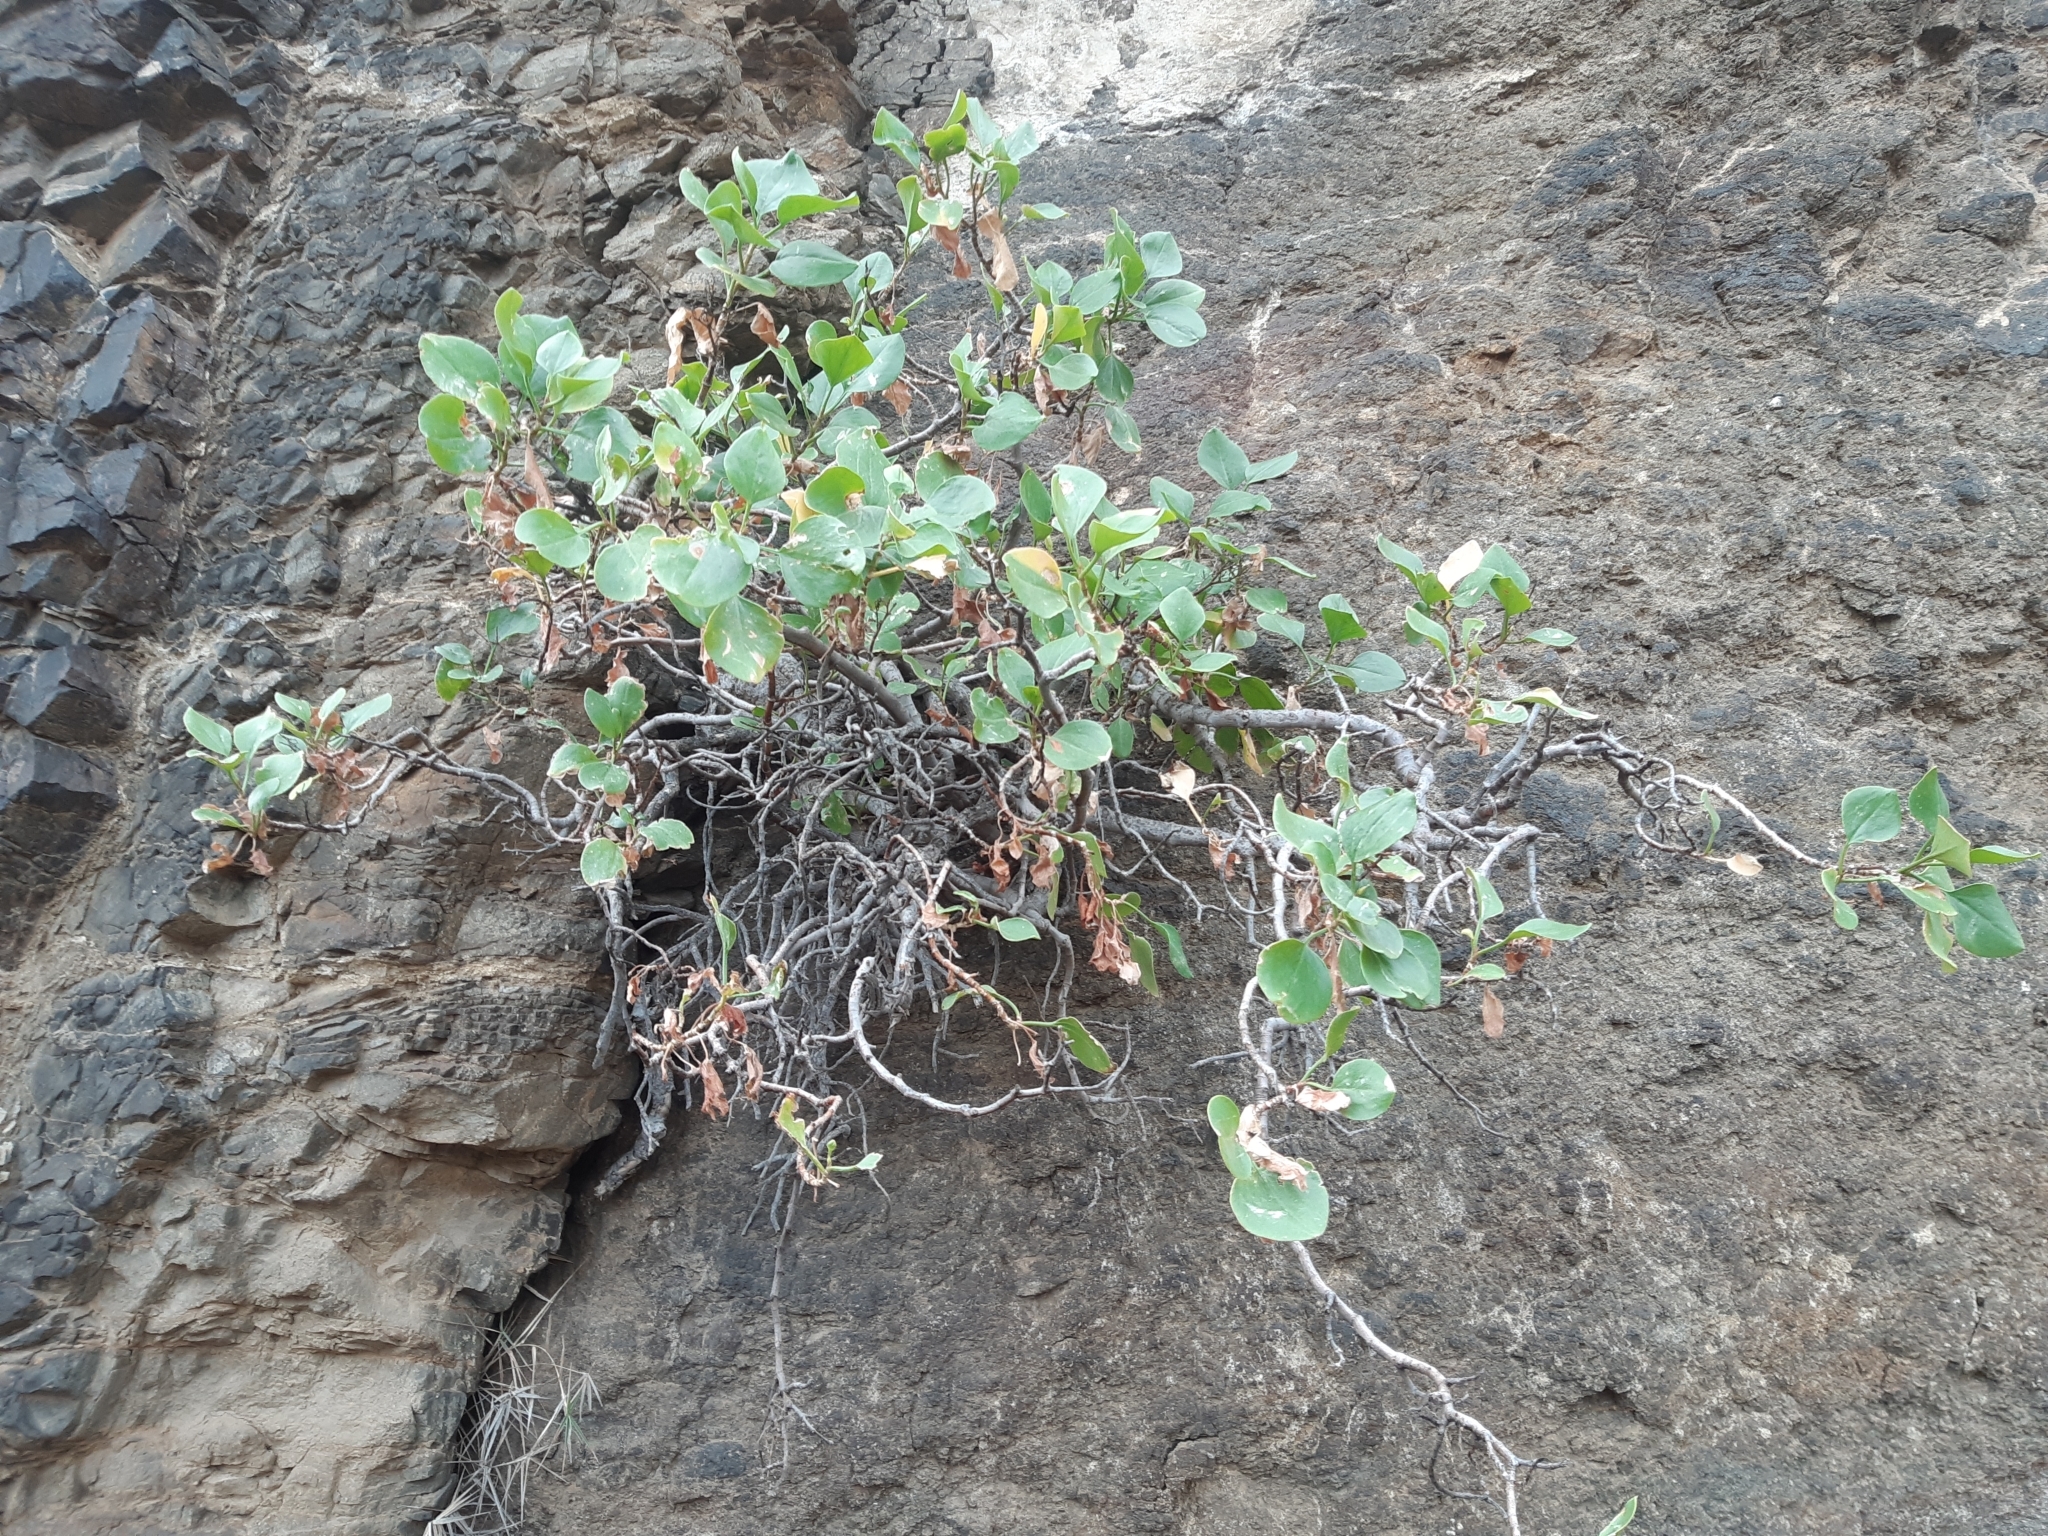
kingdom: Plantae
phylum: Tracheophyta
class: Magnoliopsida
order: Caryophyllales
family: Polygonaceae
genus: Rumex
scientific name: Rumex lunaria
